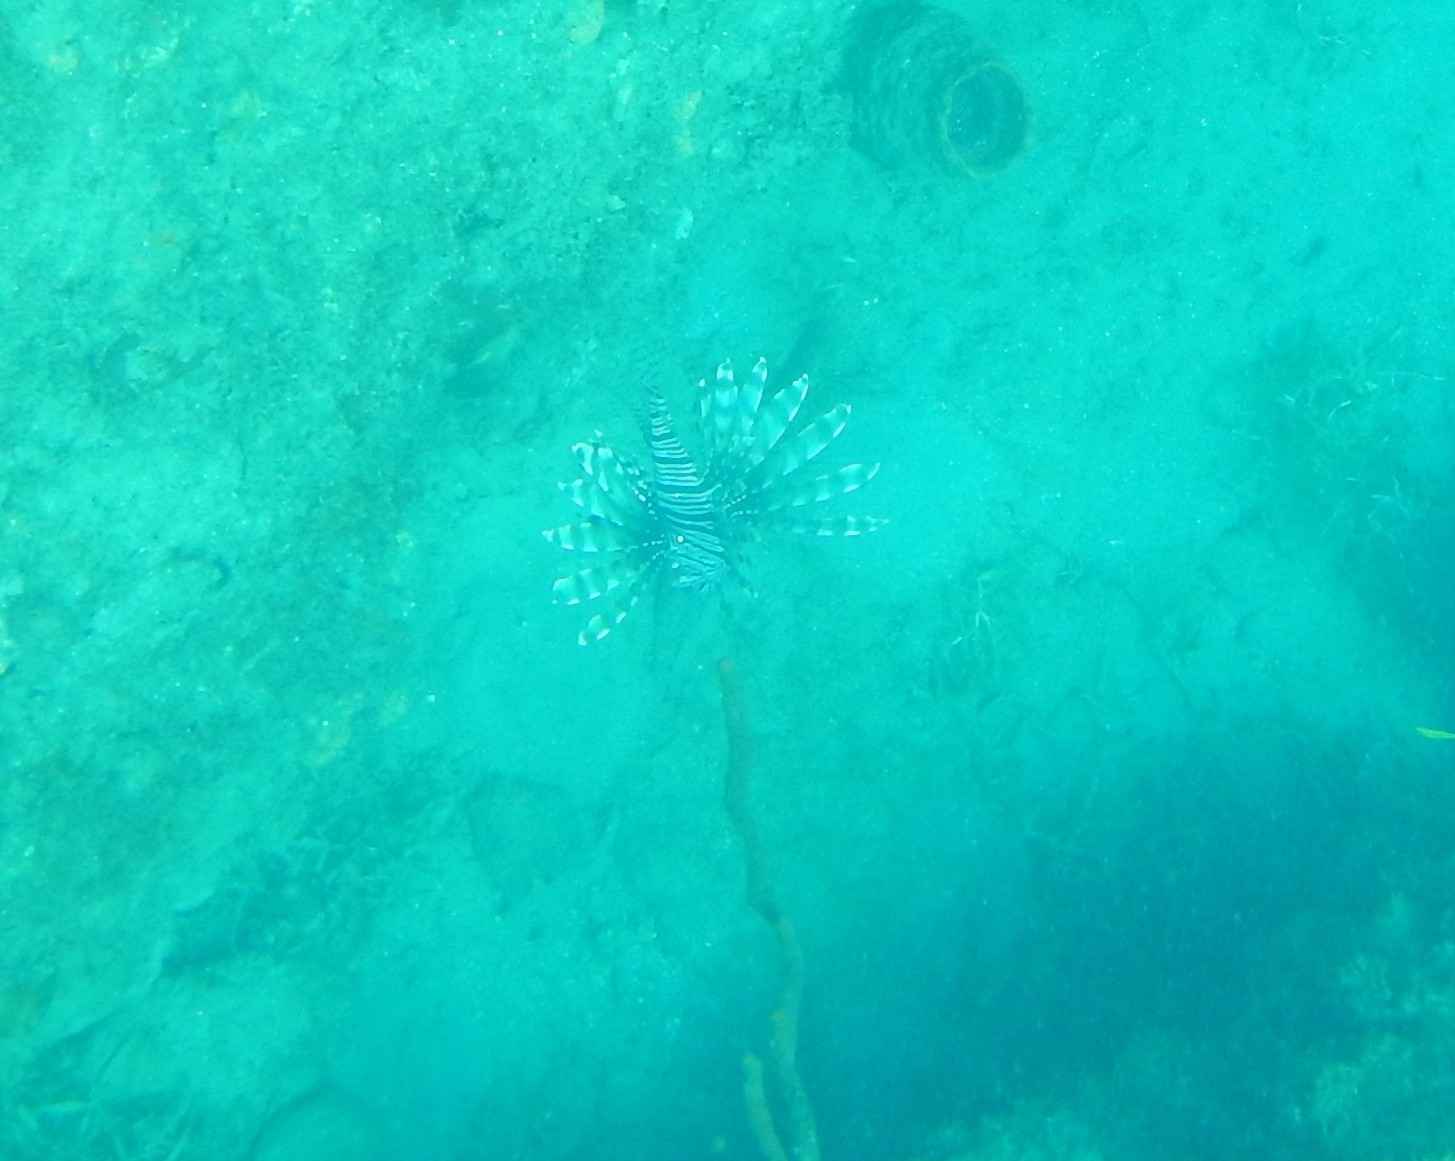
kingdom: Animalia
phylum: Chordata
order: Scorpaeniformes
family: Scorpaenidae
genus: Pterois
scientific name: Pterois volitans
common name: Lionfish
